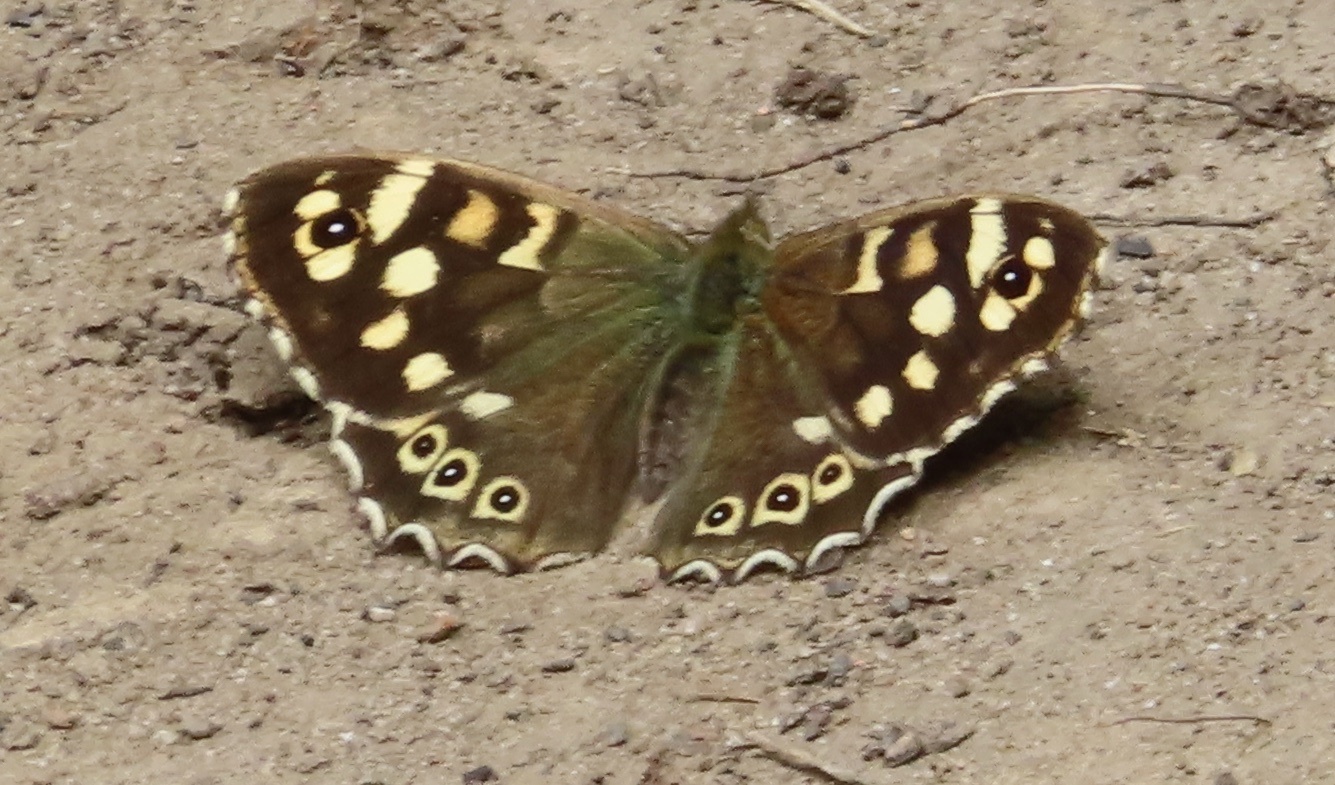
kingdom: Animalia
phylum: Arthropoda
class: Insecta
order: Lepidoptera
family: Nymphalidae
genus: Pararge
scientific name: Pararge aegeria
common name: Speckled wood
